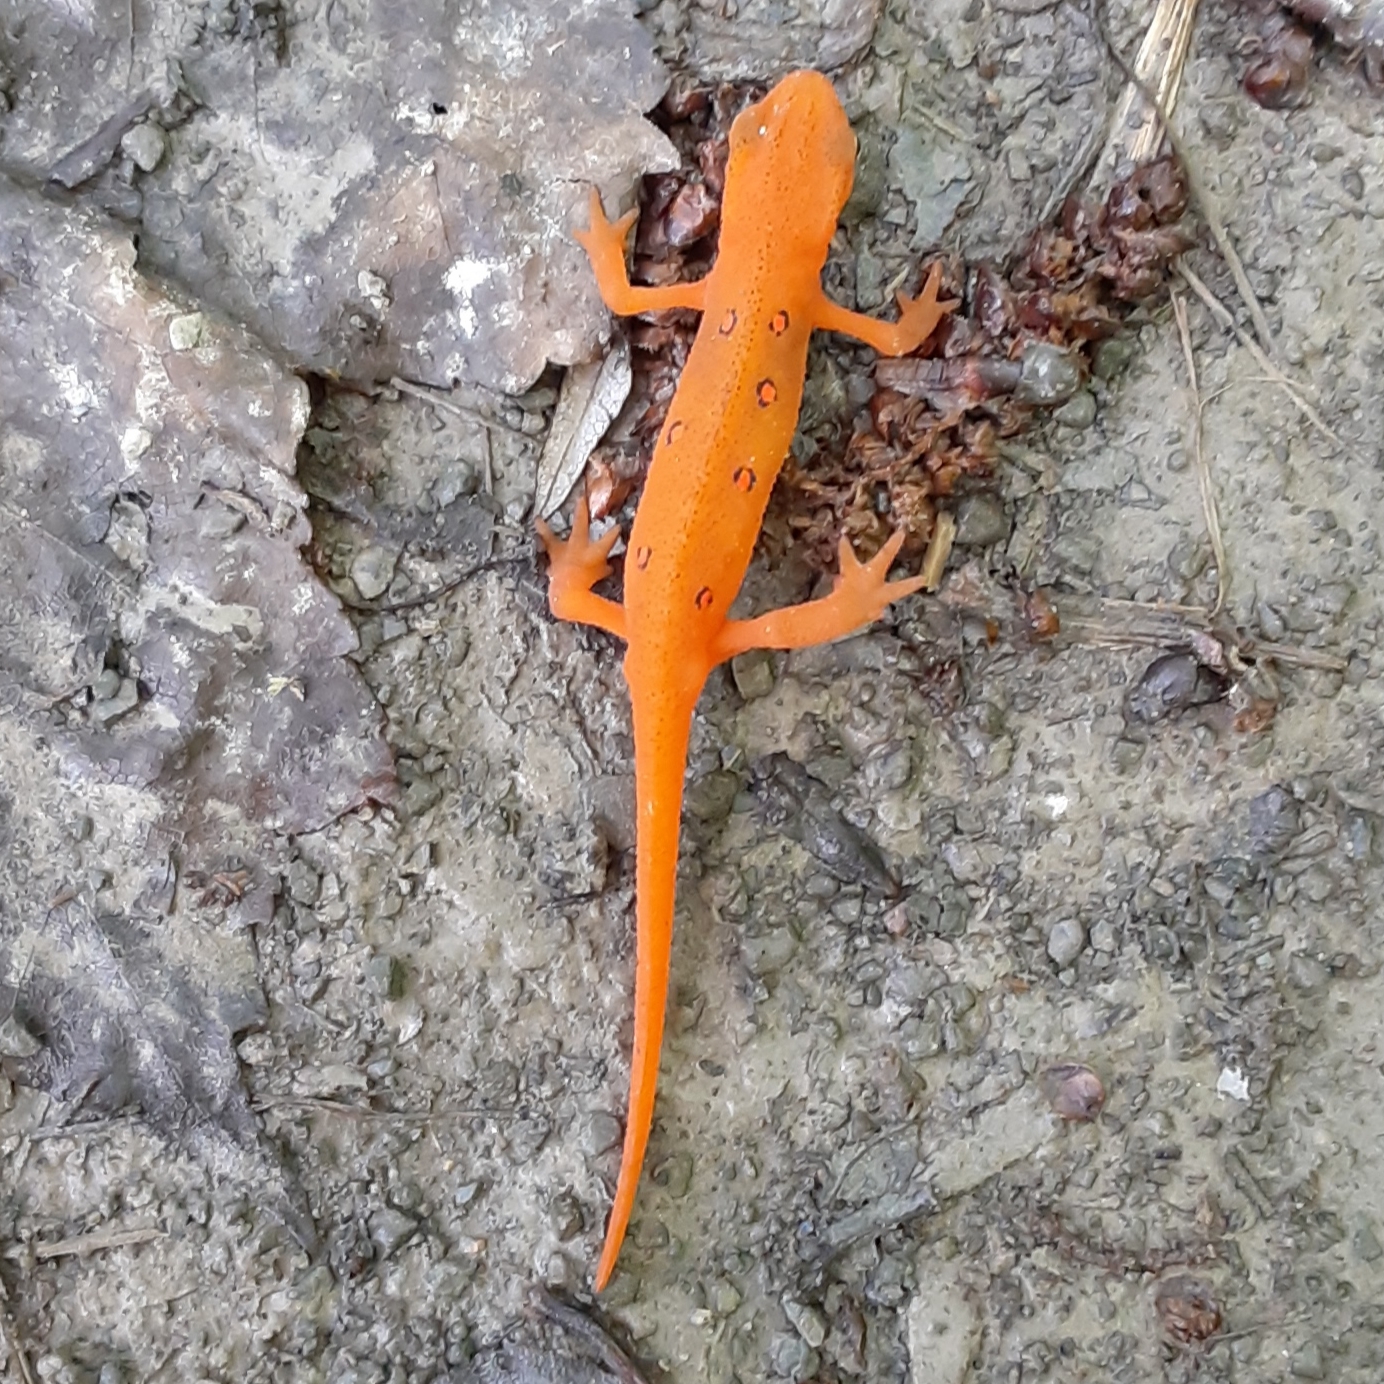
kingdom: Animalia
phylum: Chordata
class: Amphibia
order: Caudata
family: Salamandridae
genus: Notophthalmus
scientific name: Notophthalmus viridescens
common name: Eastern newt
